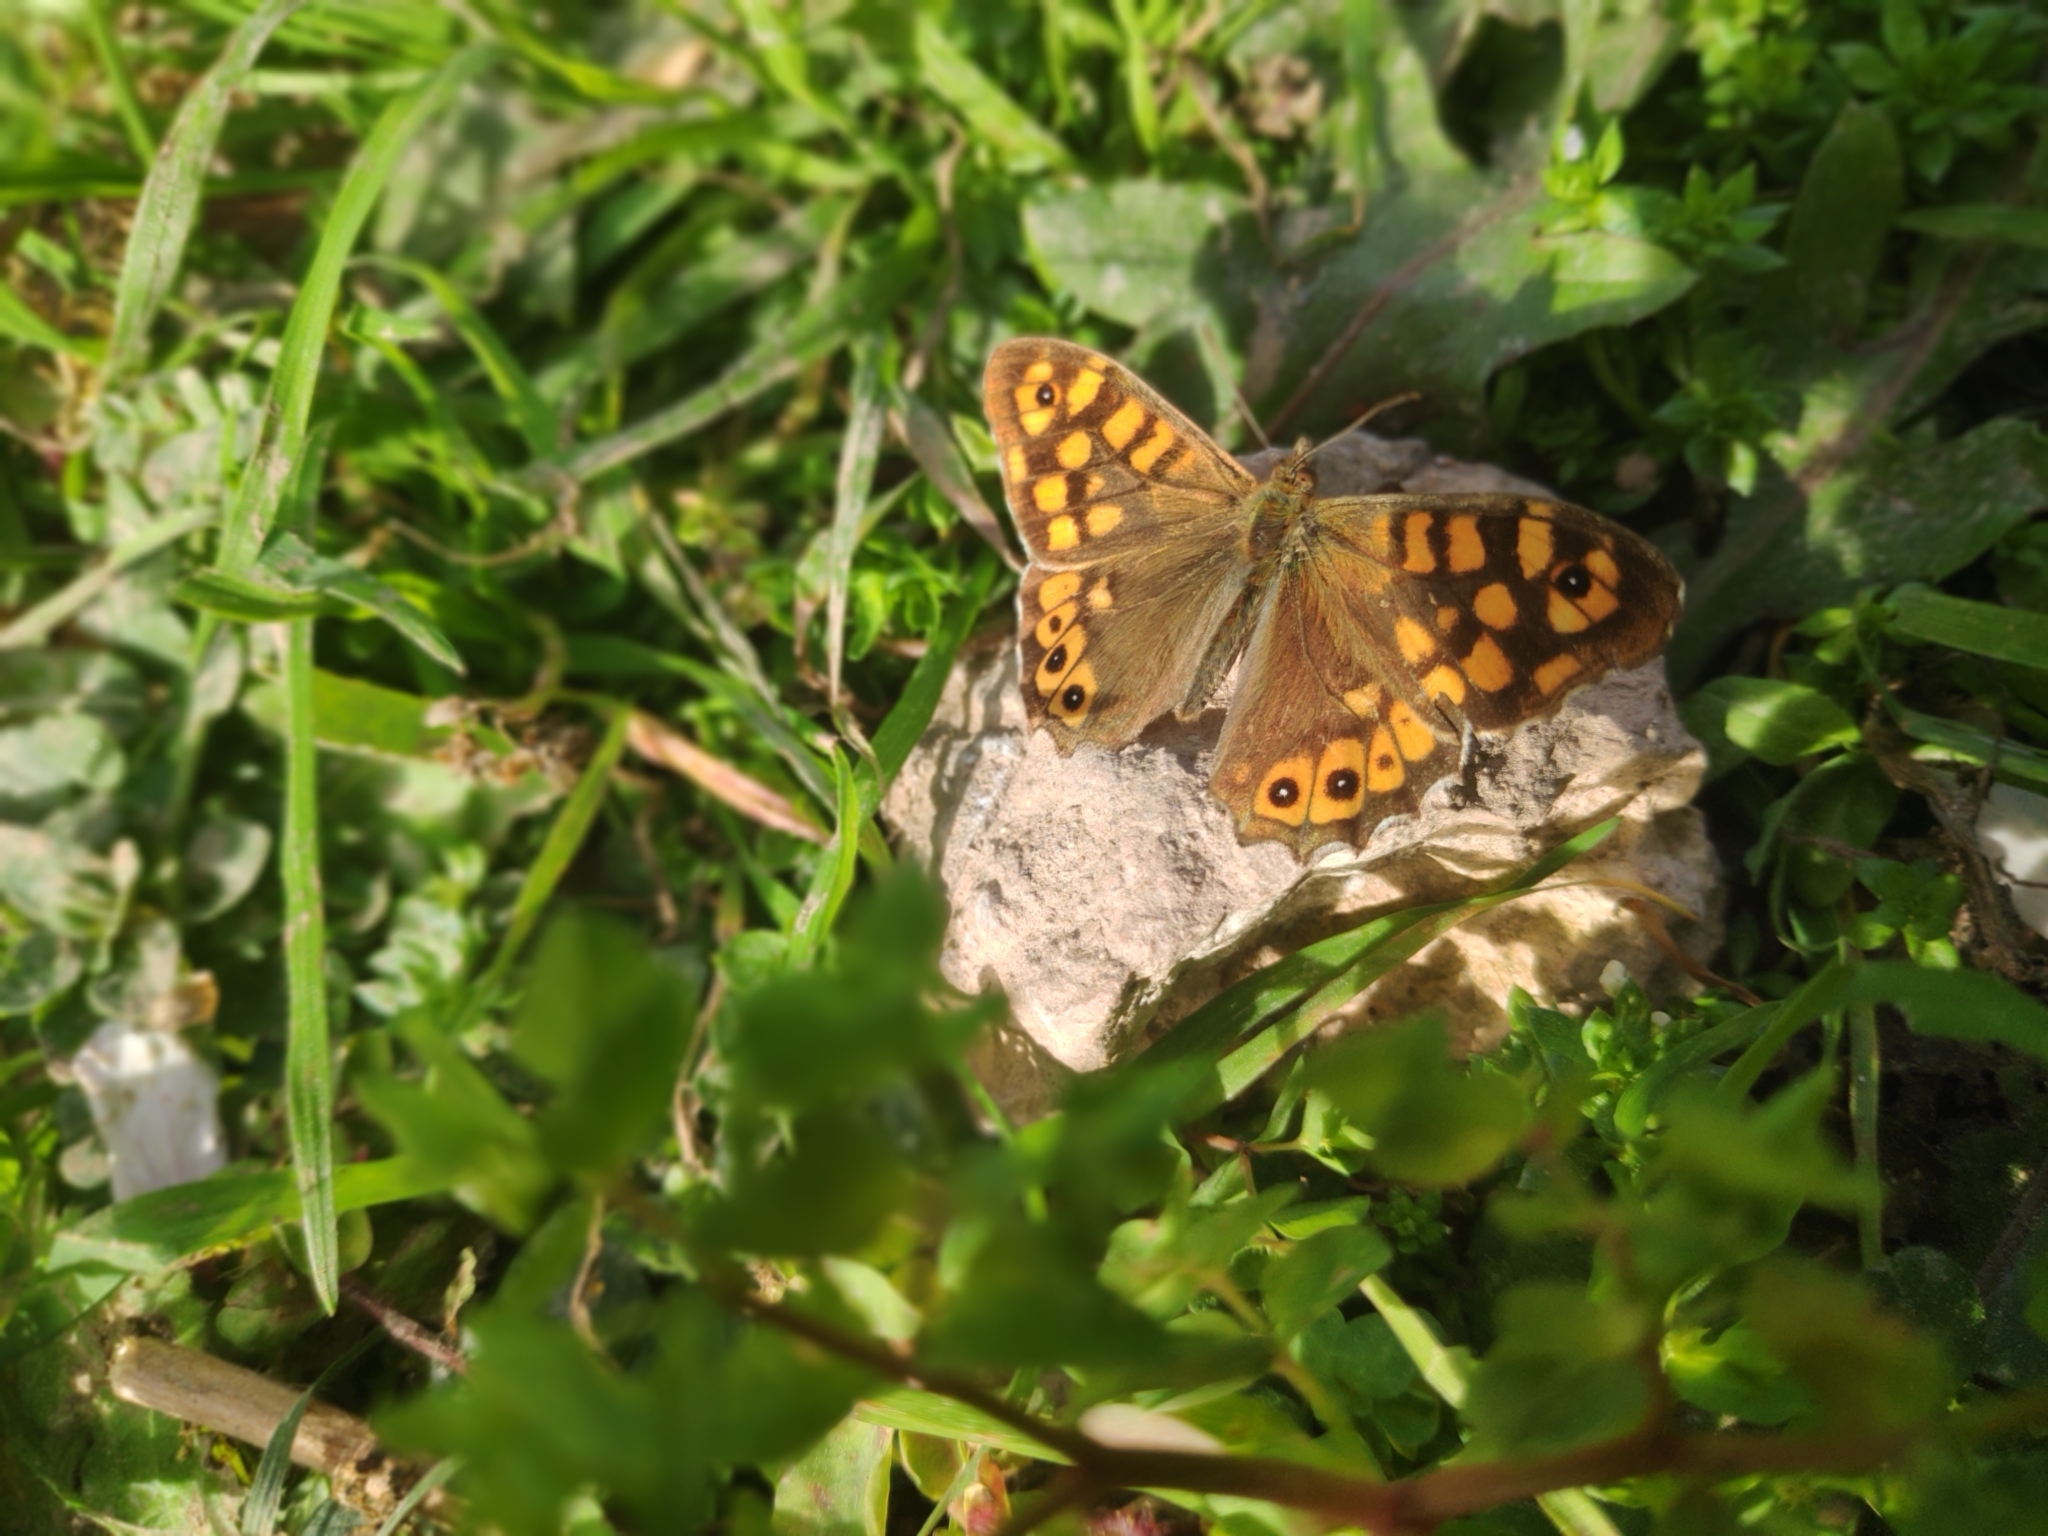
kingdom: Animalia
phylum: Arthropoda
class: Insecta
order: Lepidoptera
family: Nymphalidae
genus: Pararge
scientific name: Pararge aegeria
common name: Speckled wood
